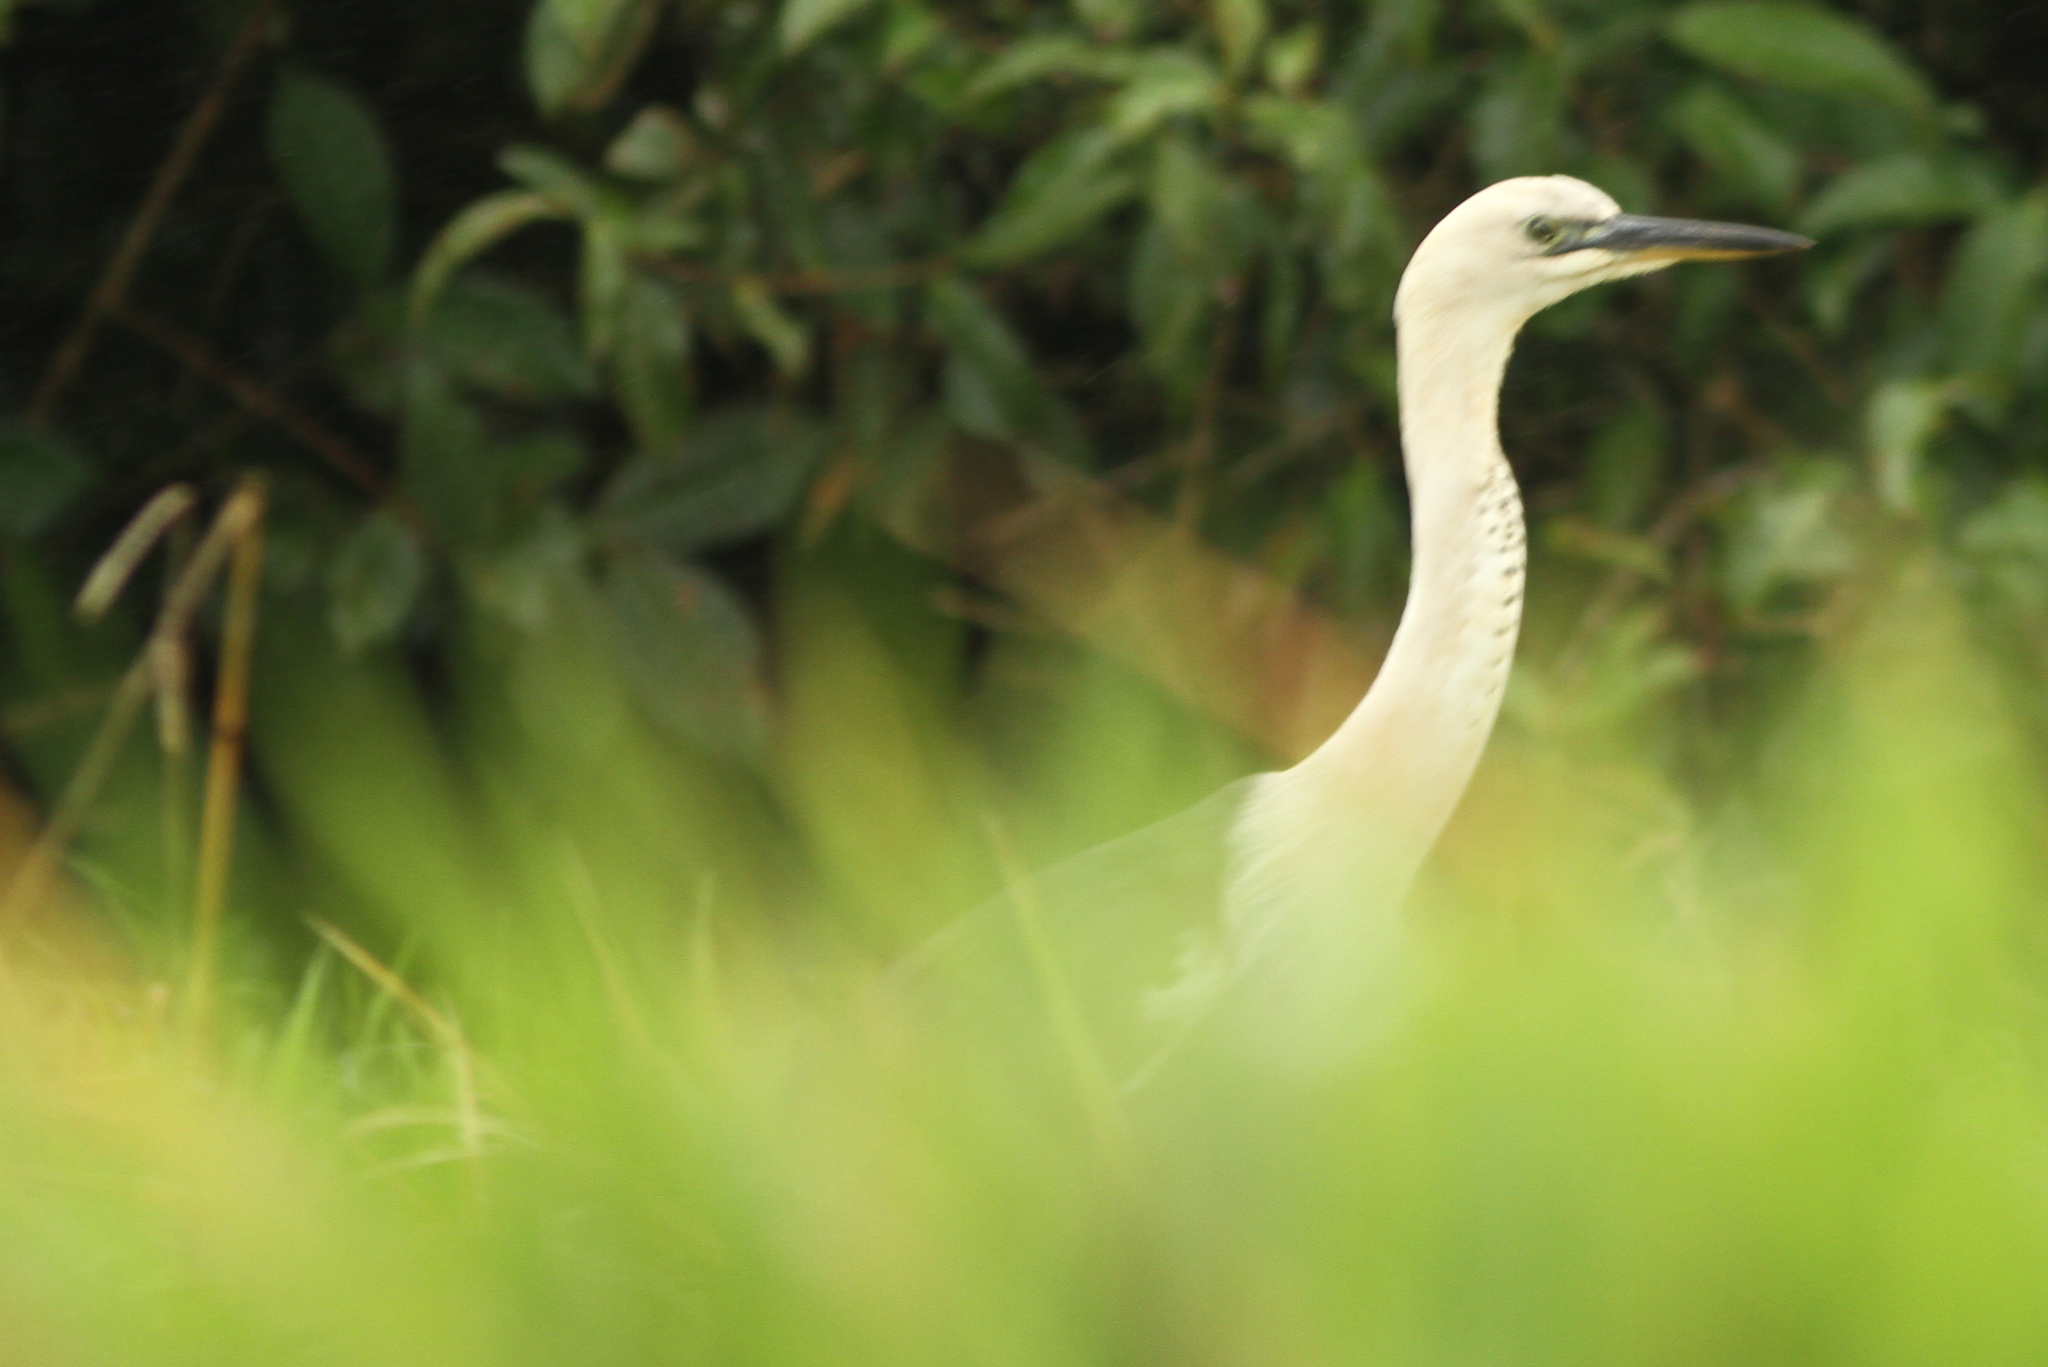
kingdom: Animalia
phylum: Chordata
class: Aves
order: Pelecaniformes
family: Ardeidae
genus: Ardea
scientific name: Ardea pacifica
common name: White-necked heron
